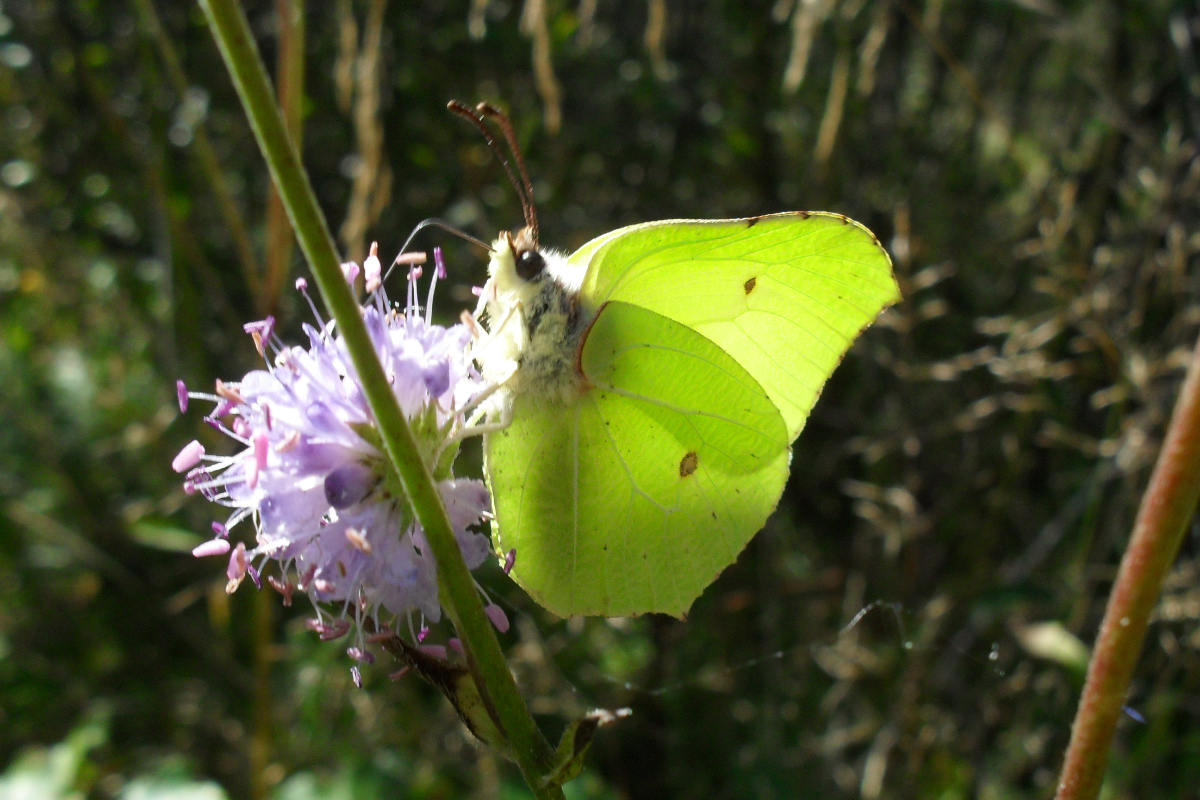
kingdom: Animalia
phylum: Arthropoda
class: Insecta
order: Lepidoptera
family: Pieridae
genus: Gonepteryx
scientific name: Gonepteryx rhamni
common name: Brimstone
